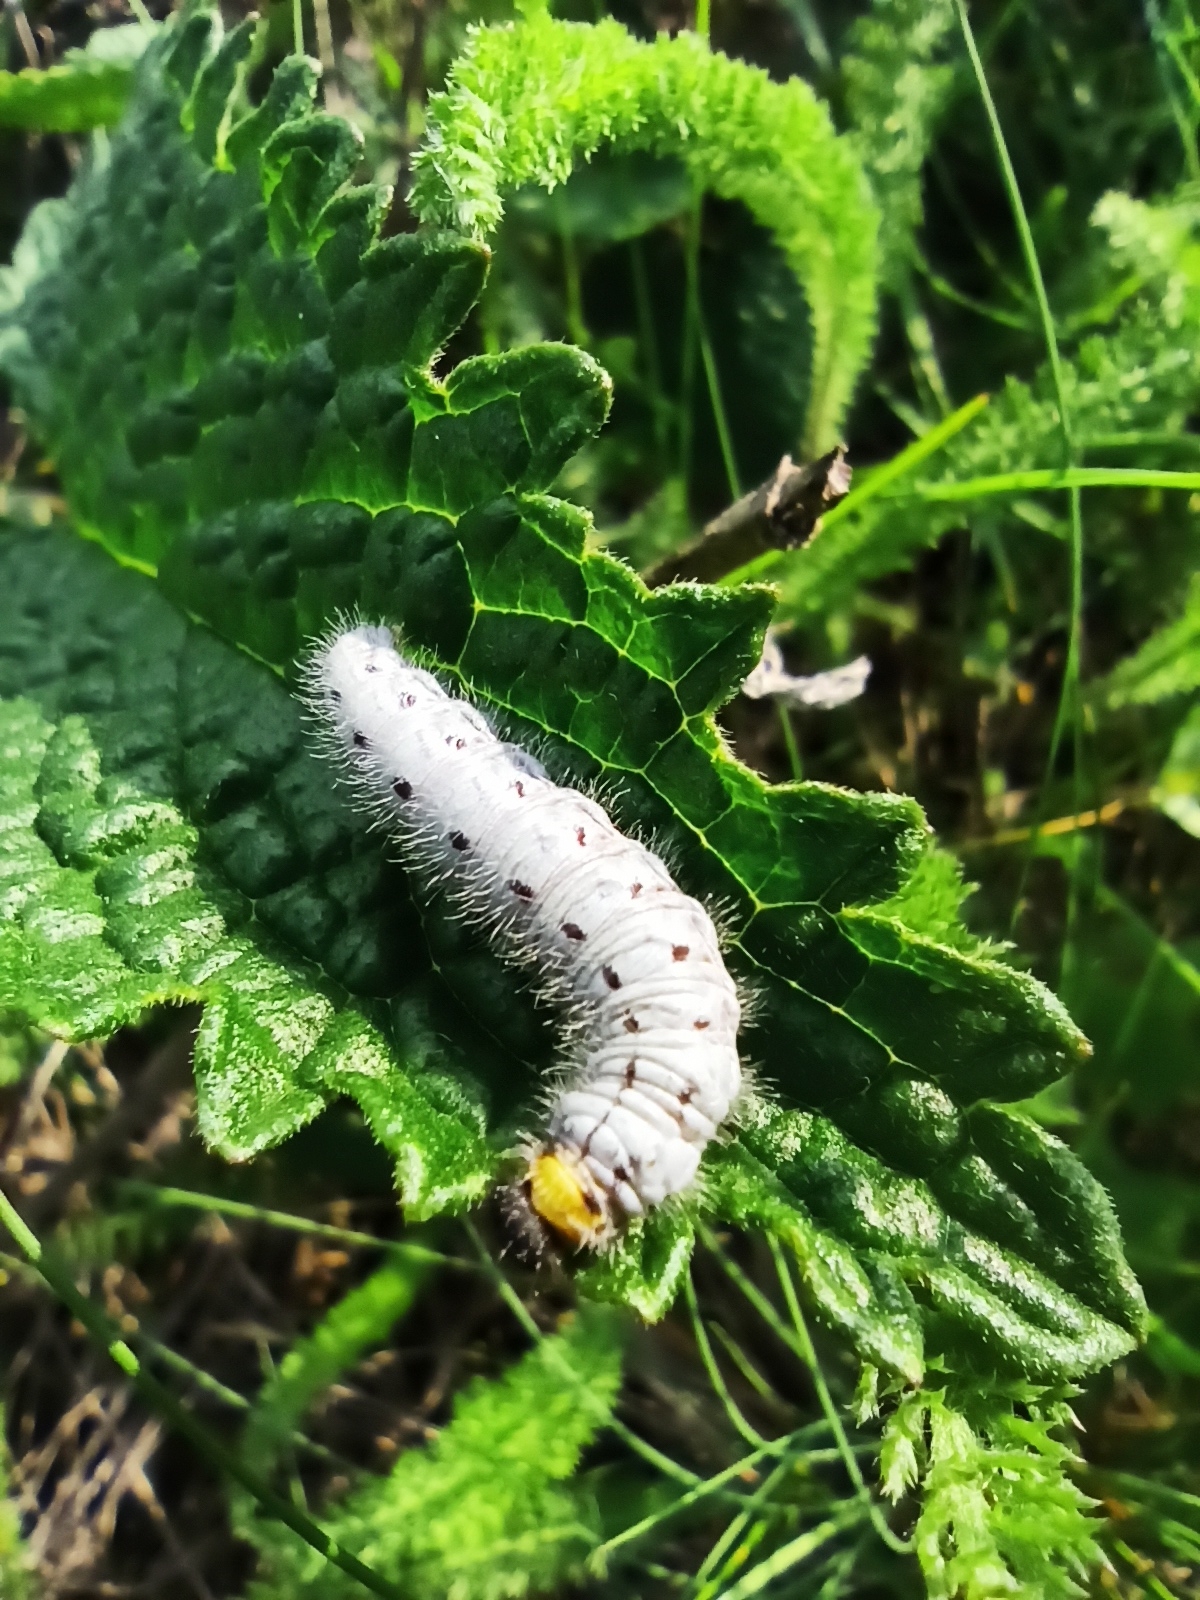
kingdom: Animalia
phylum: Arthropoda
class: Insecta
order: Lepidoptera
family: Hesperiidae
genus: Syrichtus
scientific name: Syrichtus tessellum
